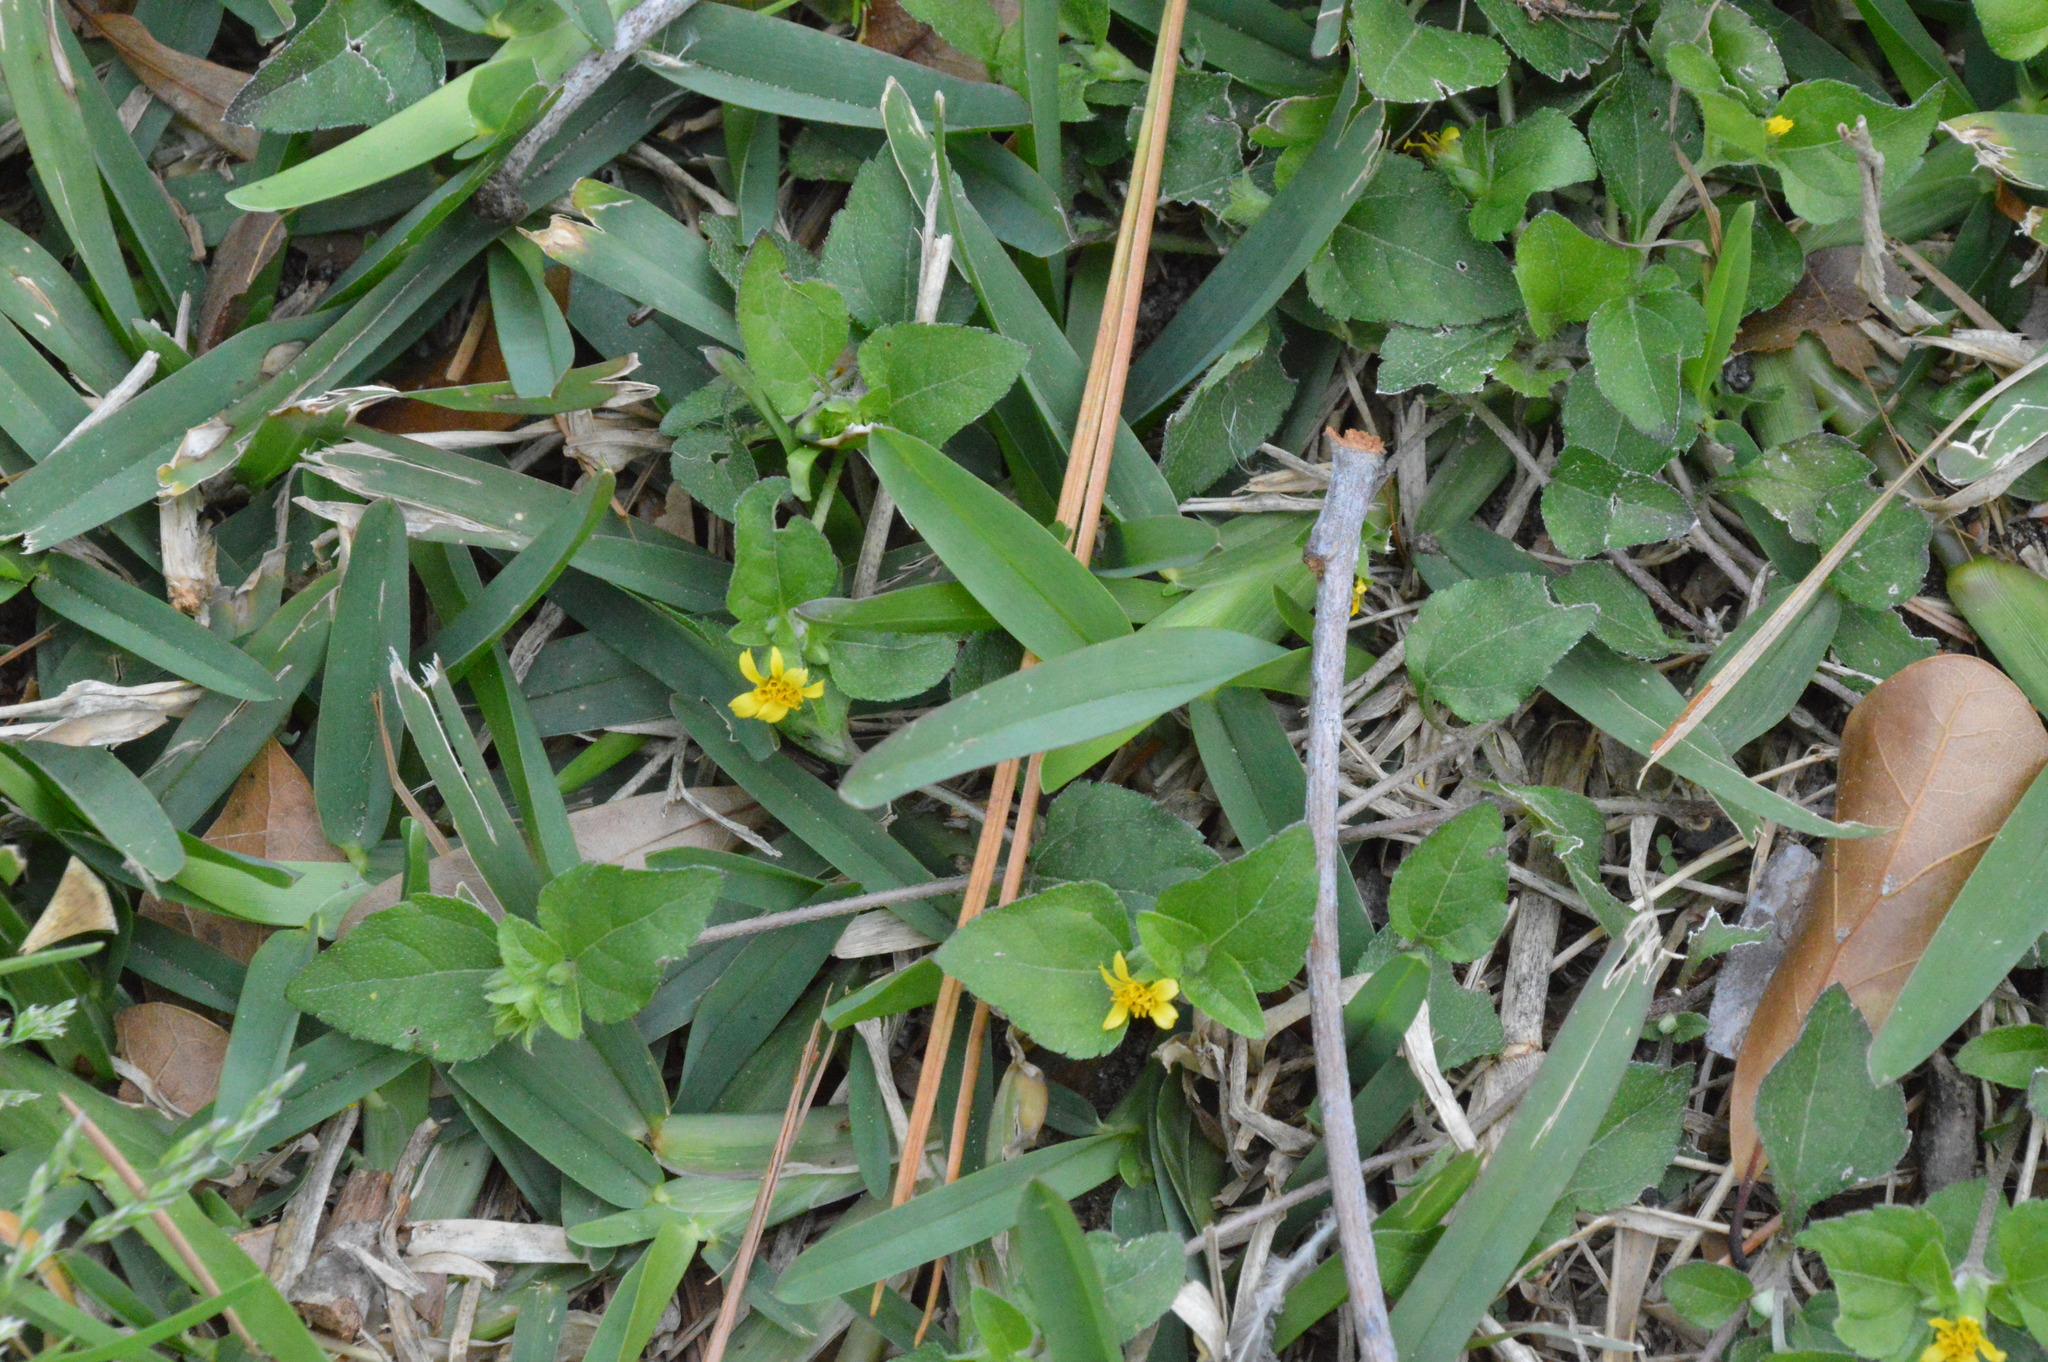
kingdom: Plantae
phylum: Tracheophyta
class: Magnoliopsida
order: Asterales
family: Asteraceae
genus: Calyptocarpus
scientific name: Calyptocarpus vialis
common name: Straggler daisy
